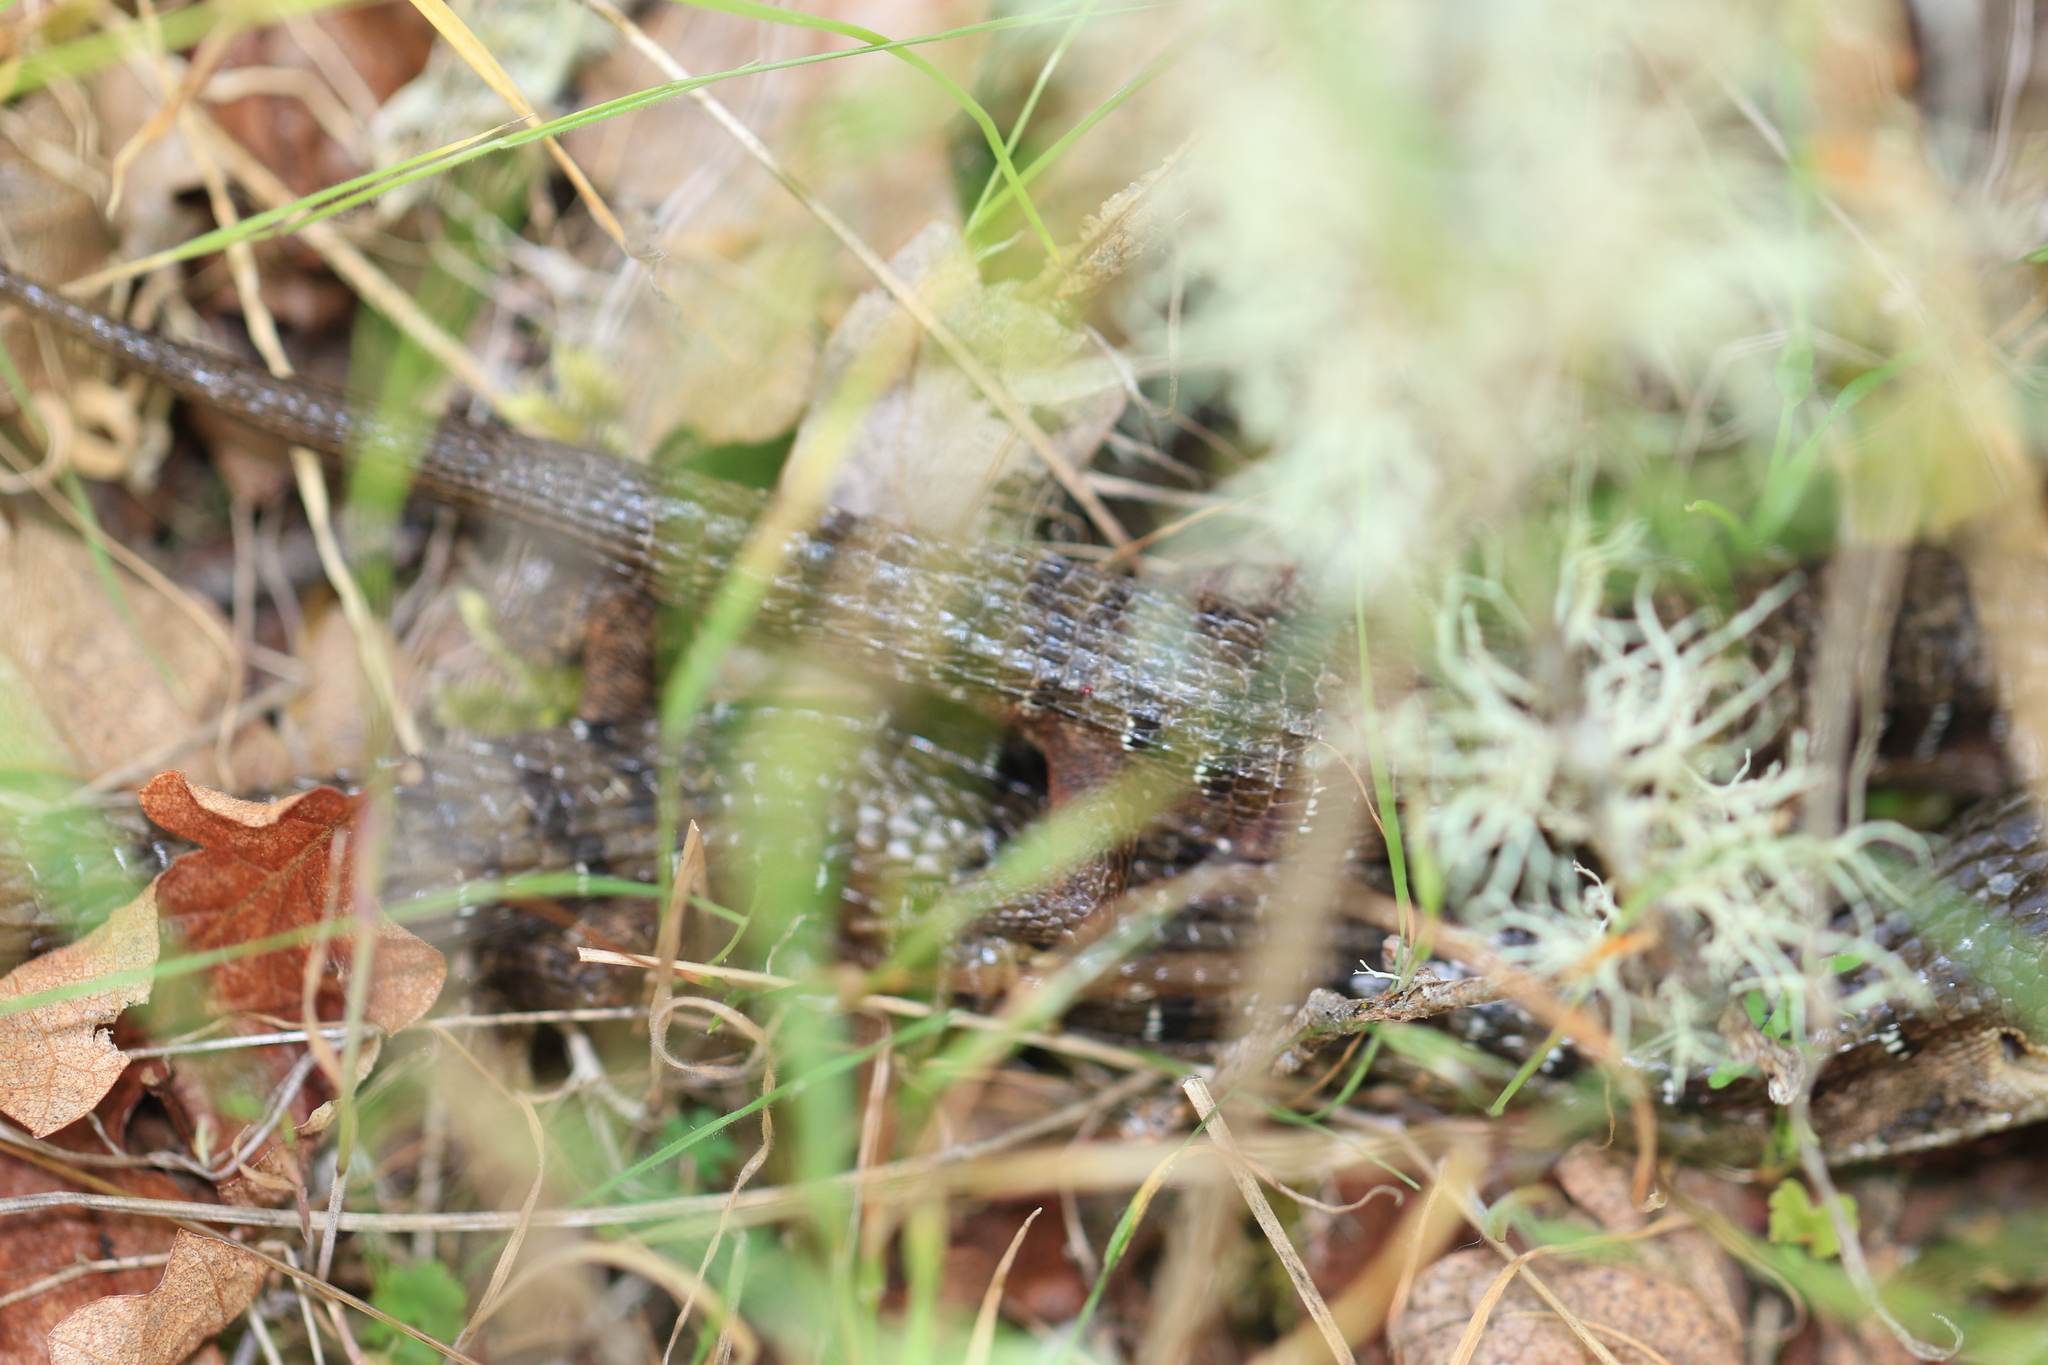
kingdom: Animalia
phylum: Chordata
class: Squamata
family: Anguidae
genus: Elgaria
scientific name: Elgaria multicarinata
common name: Southern alligator lizard
